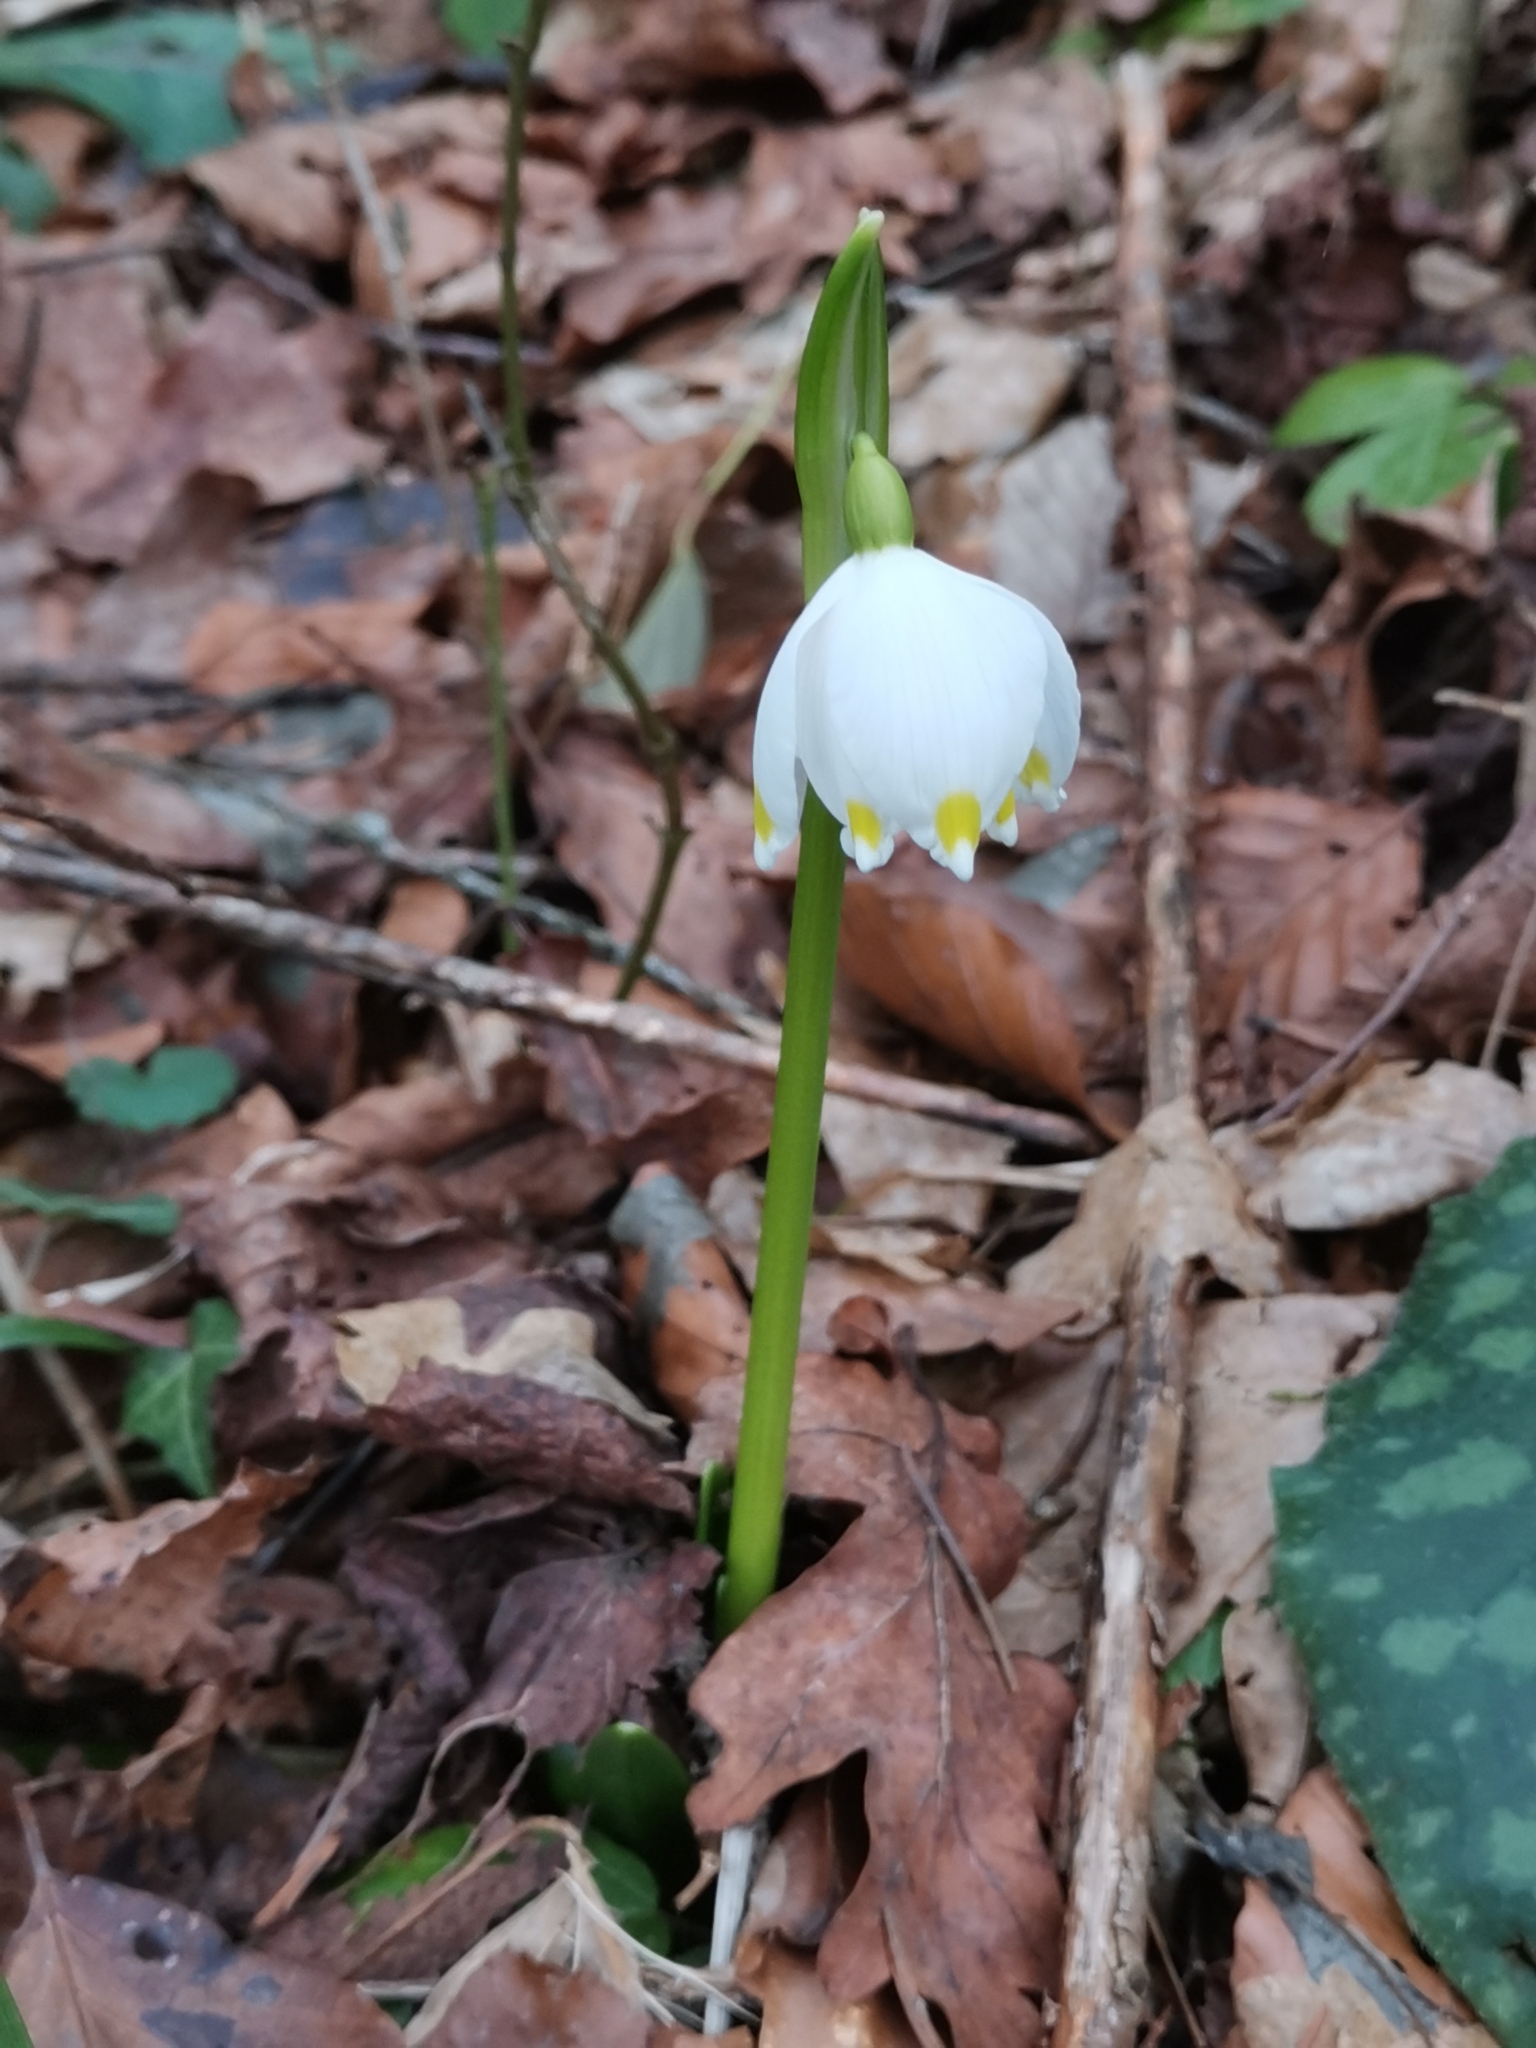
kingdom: Plantae
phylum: Tracheophyta
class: Liliopsida
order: Asparagales
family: Amaryllidaceae
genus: Leucojum
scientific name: Leucojum vernum
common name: Spring snowflake
